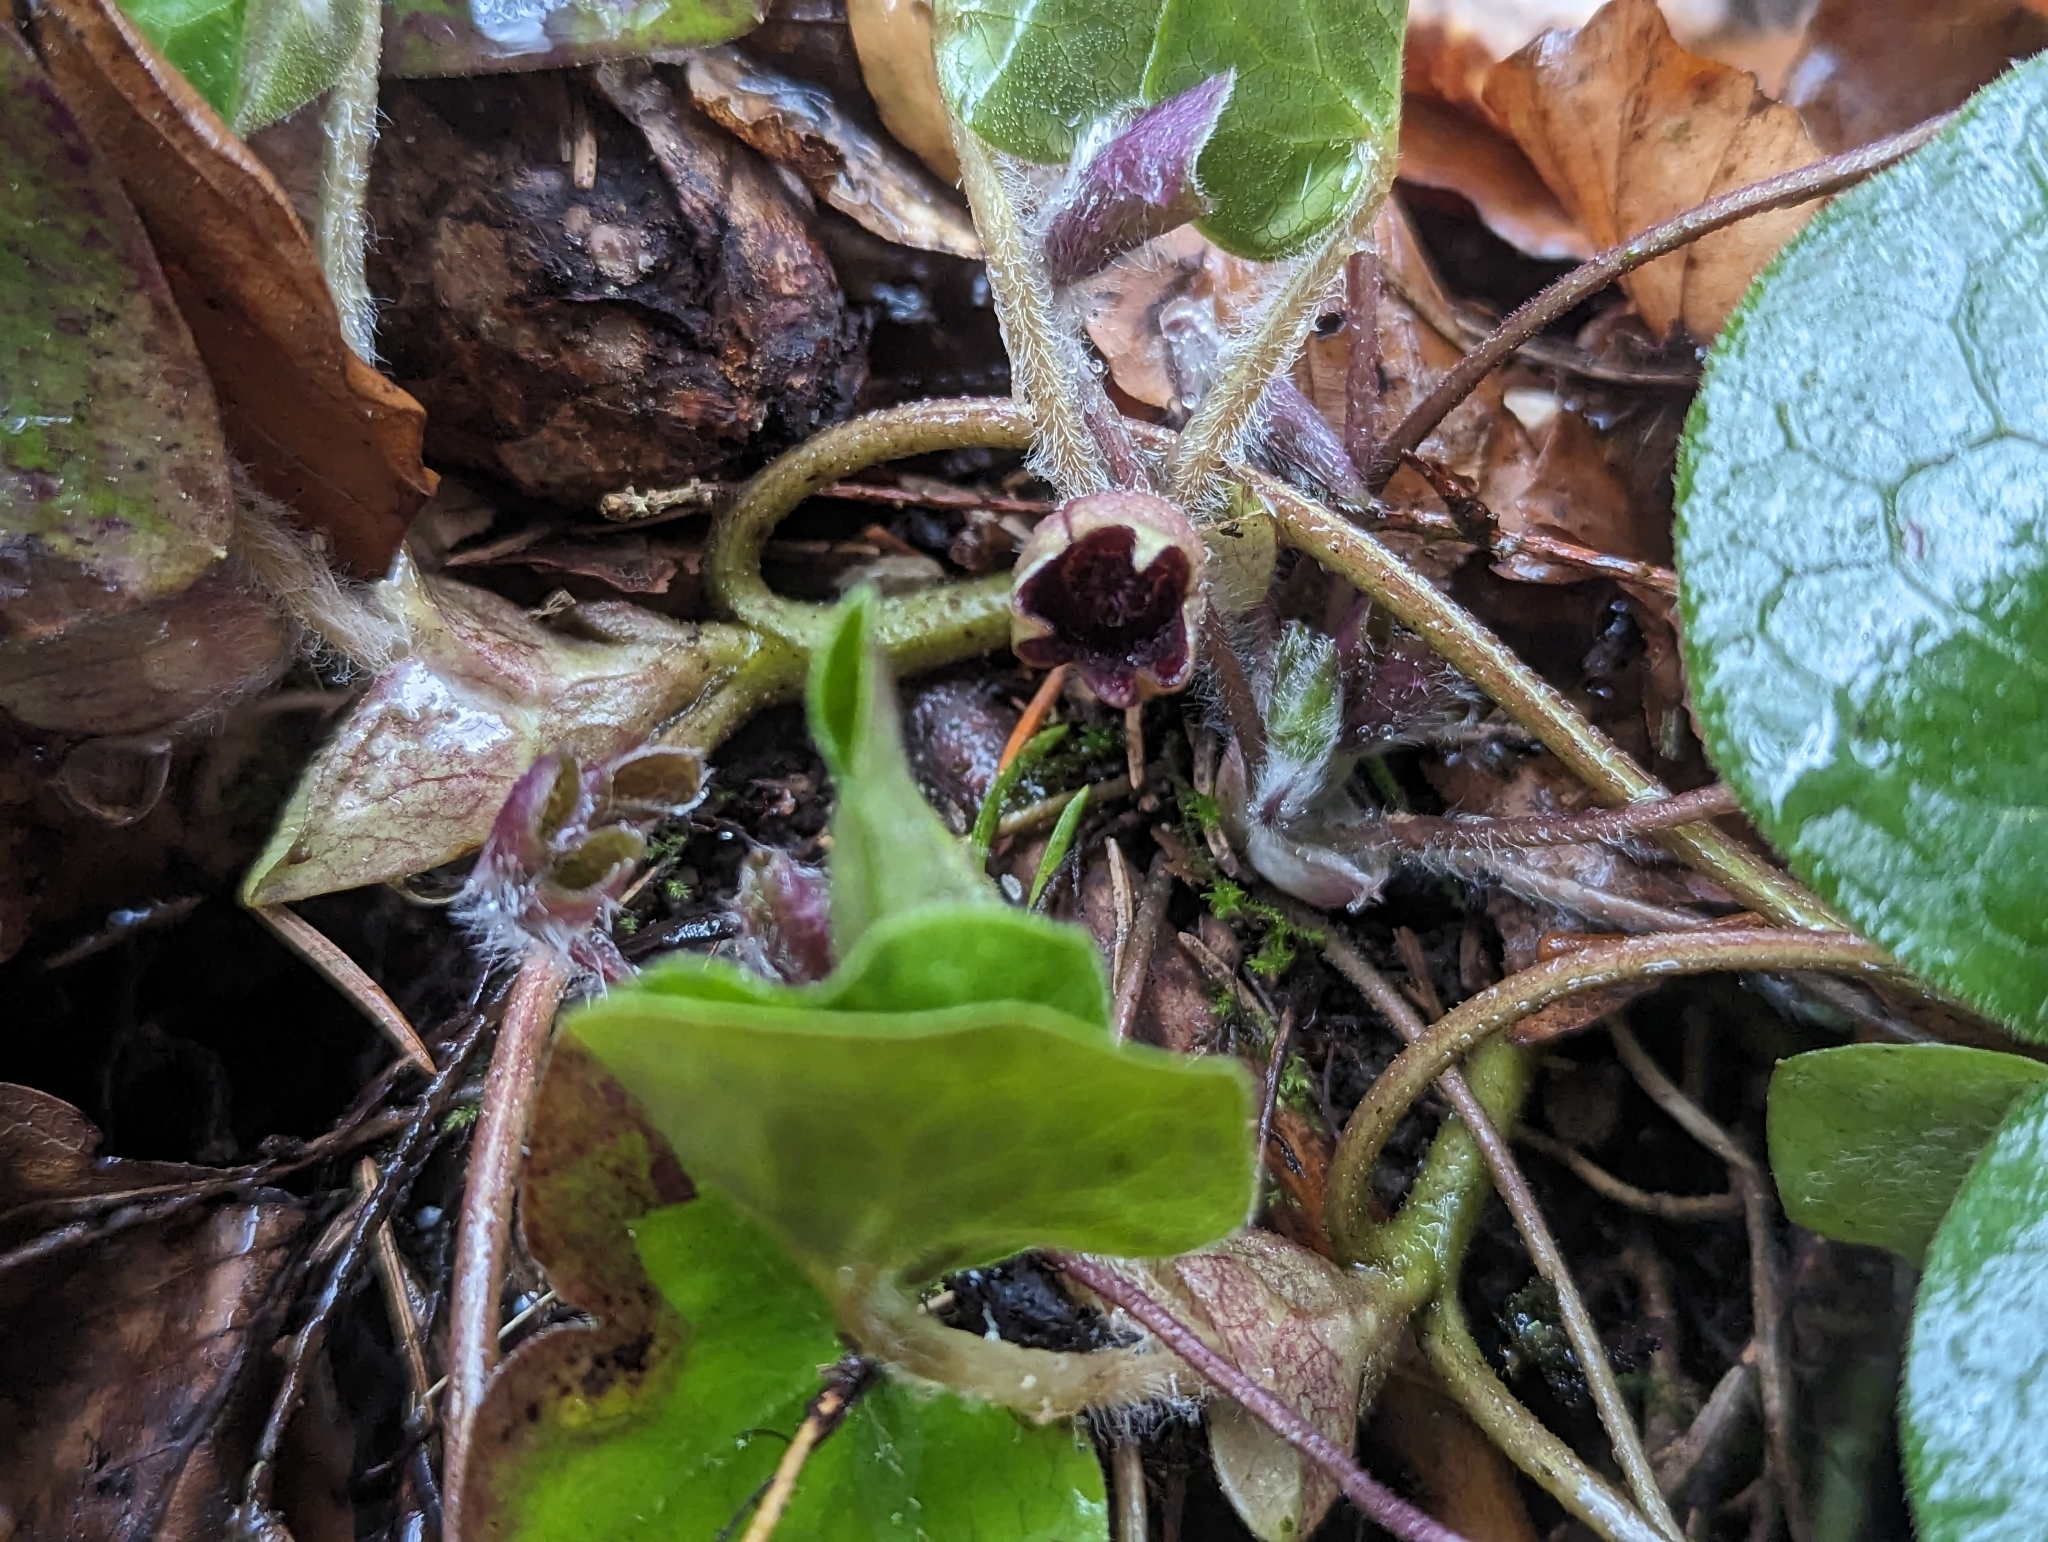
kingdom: Plantae
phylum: Tracheophyta
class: Magnoliopsida
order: Piperales
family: Aristolochiaceae
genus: Asarum
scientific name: Asarum europaeum
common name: Asarabacca
